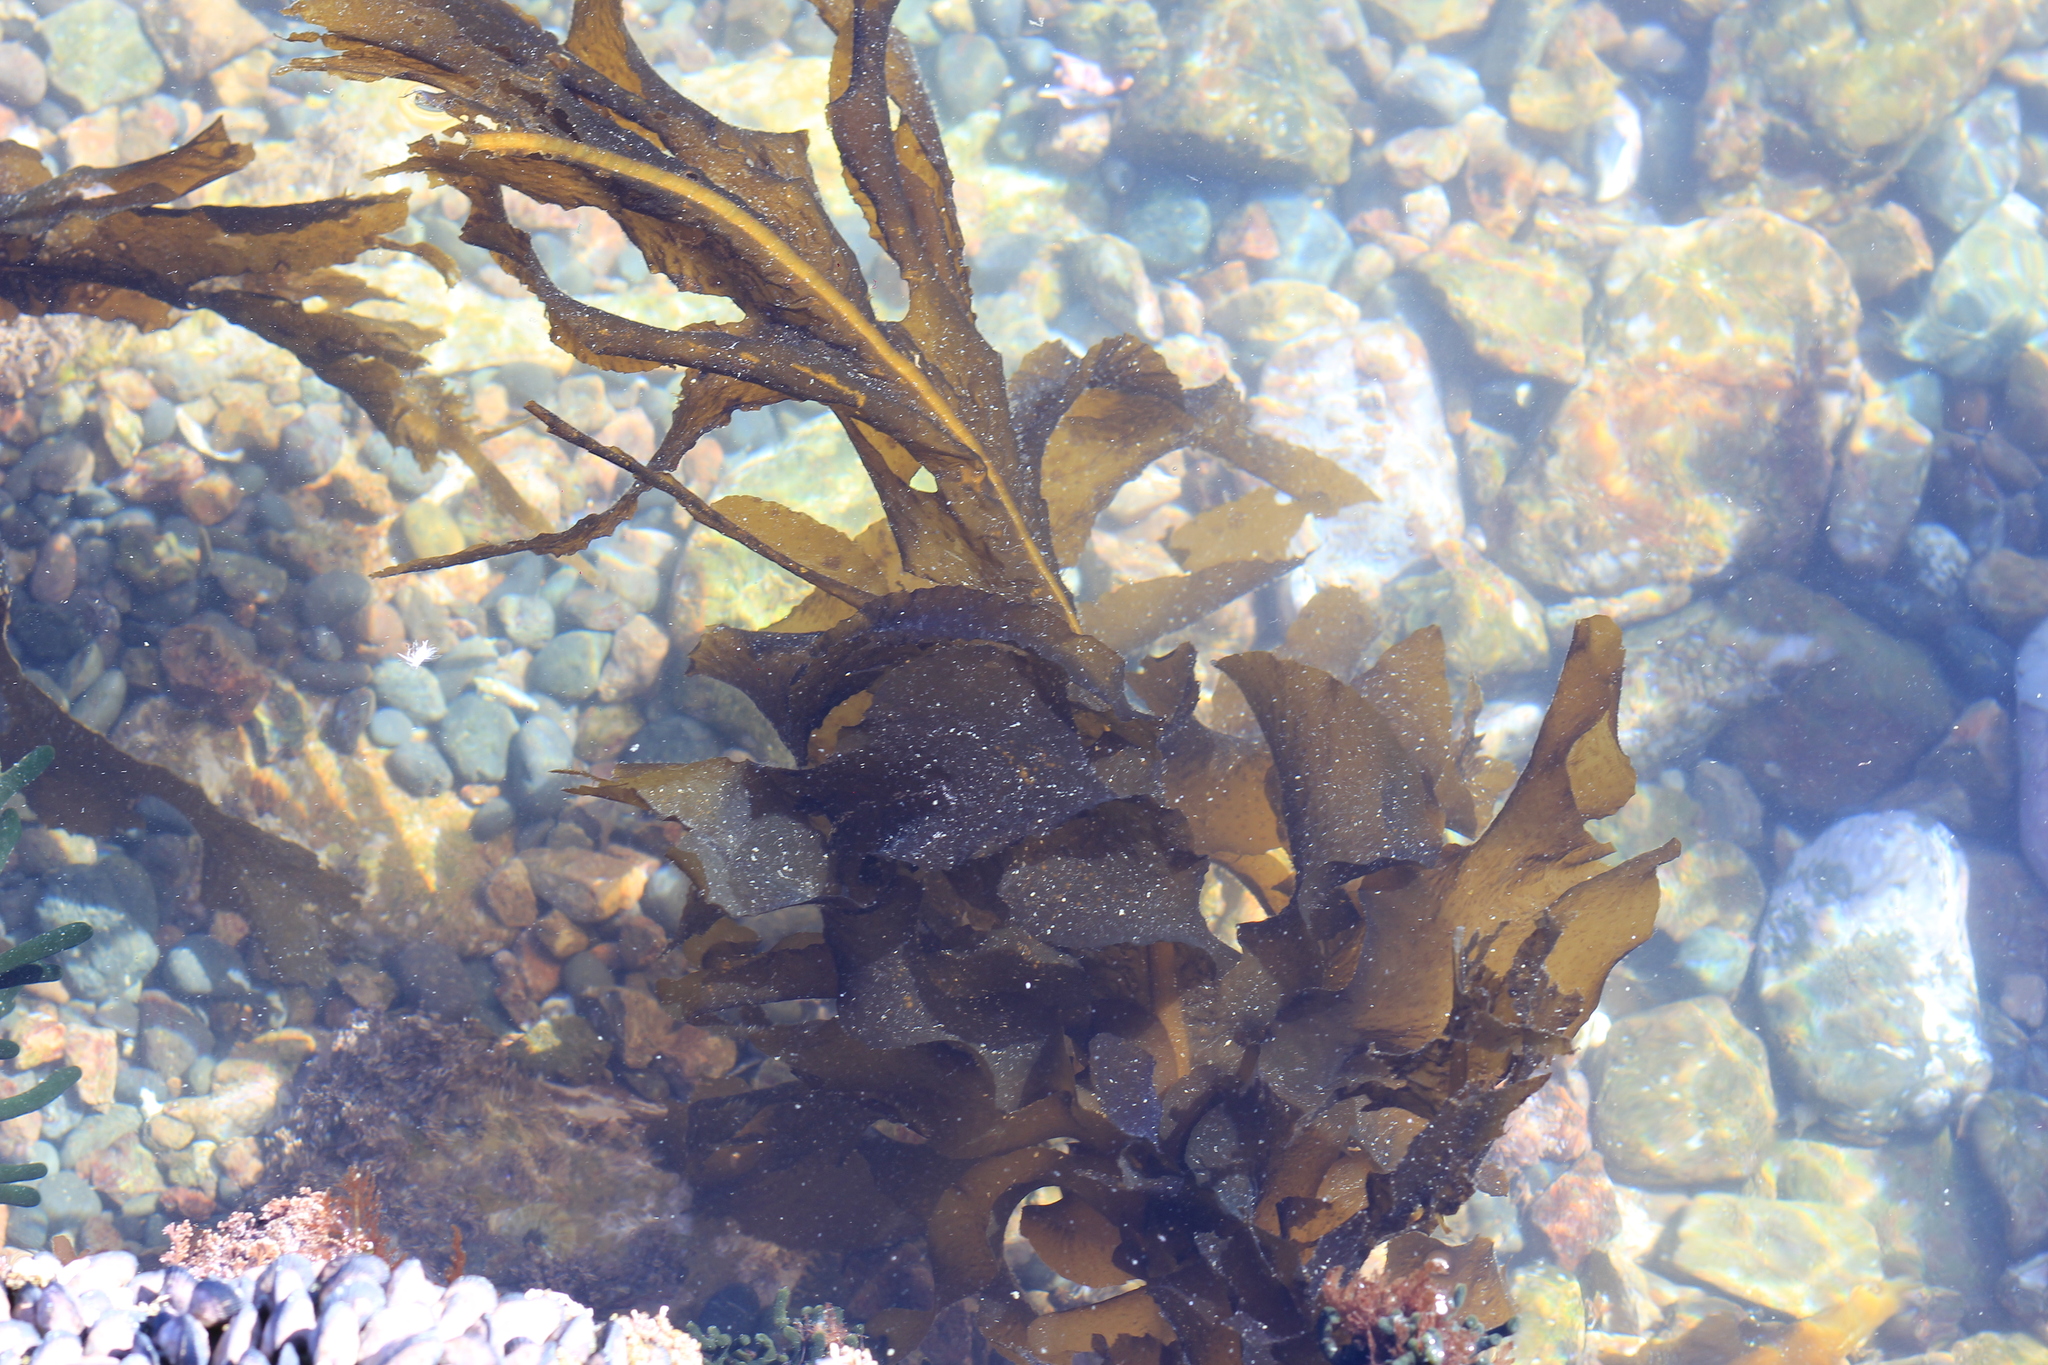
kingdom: Chromista
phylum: Ochrophyta
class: Phaeophyceae
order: Laminariales
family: Alariaceae
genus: Undaria
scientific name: Undaria pinnatifida
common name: Asian kelp
